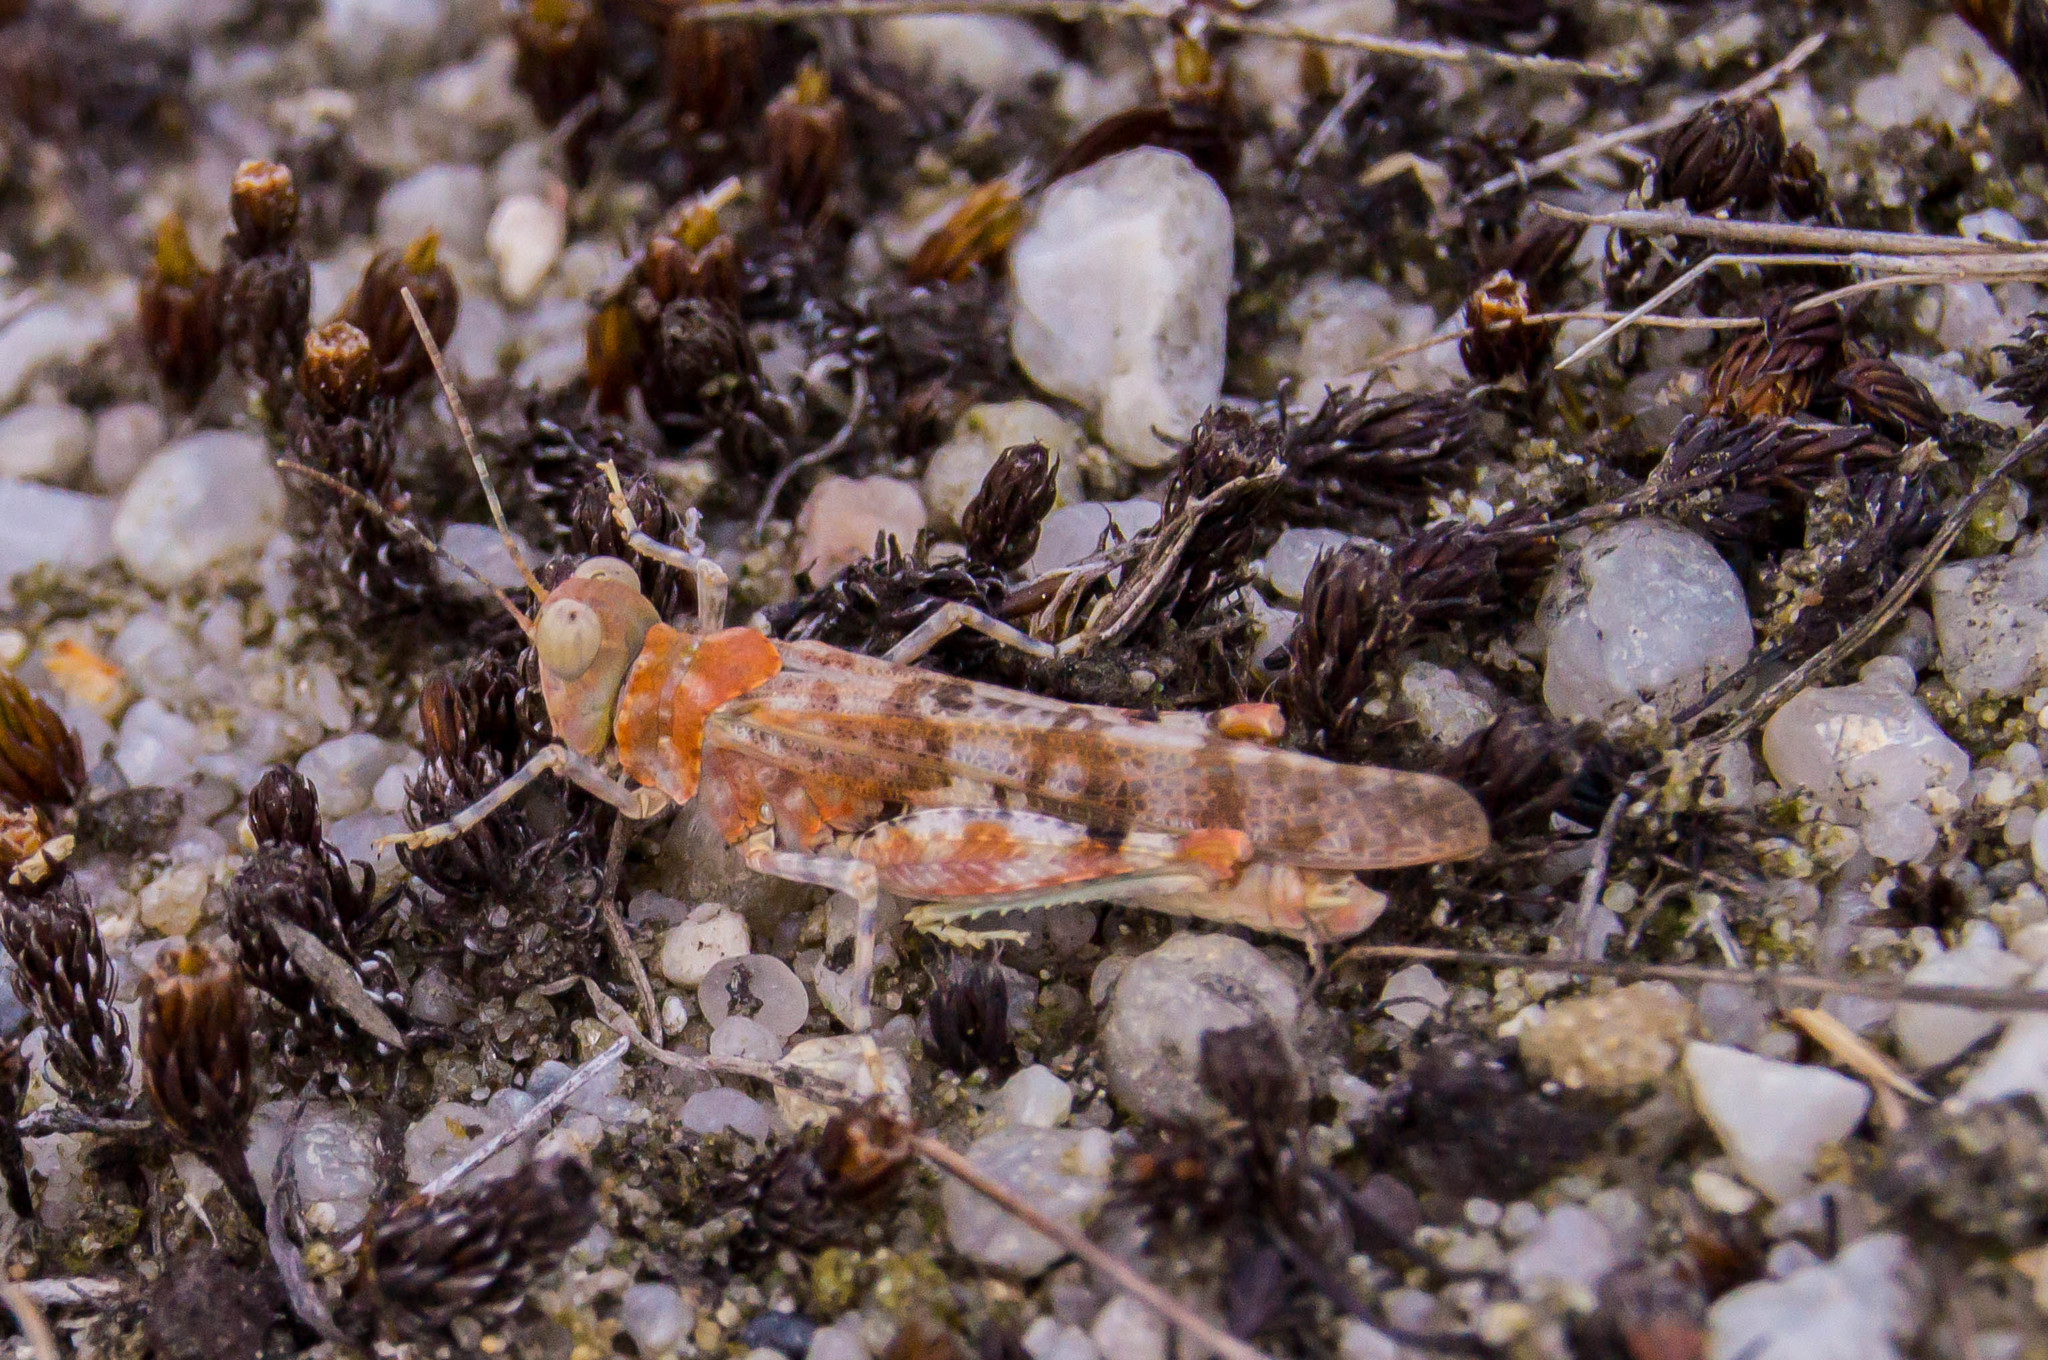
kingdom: Animalia
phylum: Arthropoda
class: Insecta
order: Orthoptera
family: Acrididae
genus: Sphingonotus
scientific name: Sphingonotus caerulans
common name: Blue-winged locust
